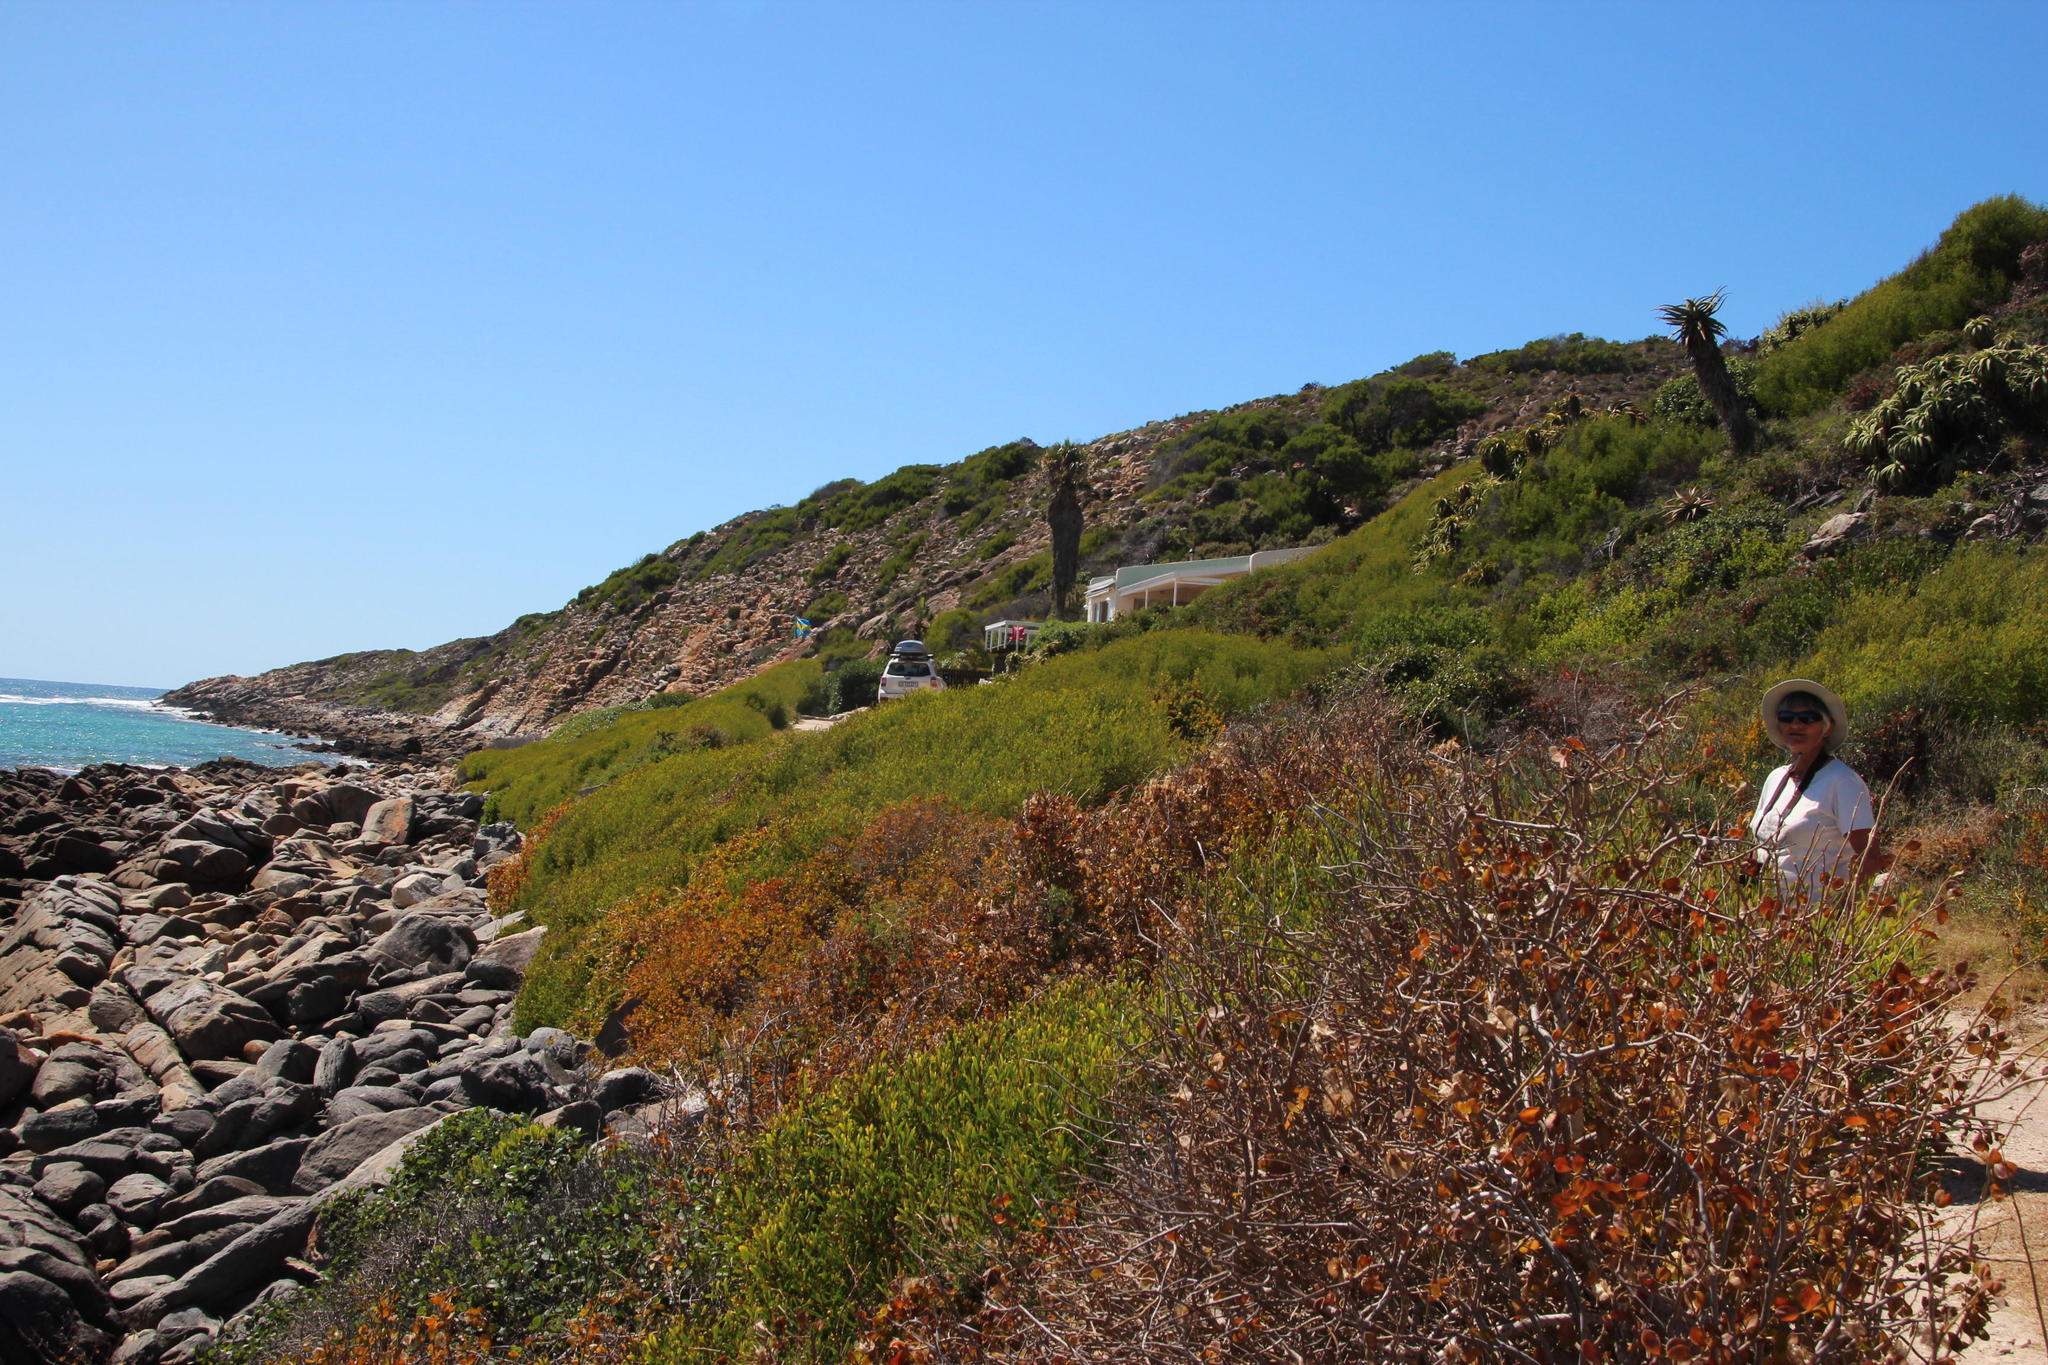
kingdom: Plantae
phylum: Tracheophyta
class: Magnoliopsida
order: Fabales
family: Fabaceae
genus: Acacia
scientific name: Acacia cyclops
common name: Coastal wattle
